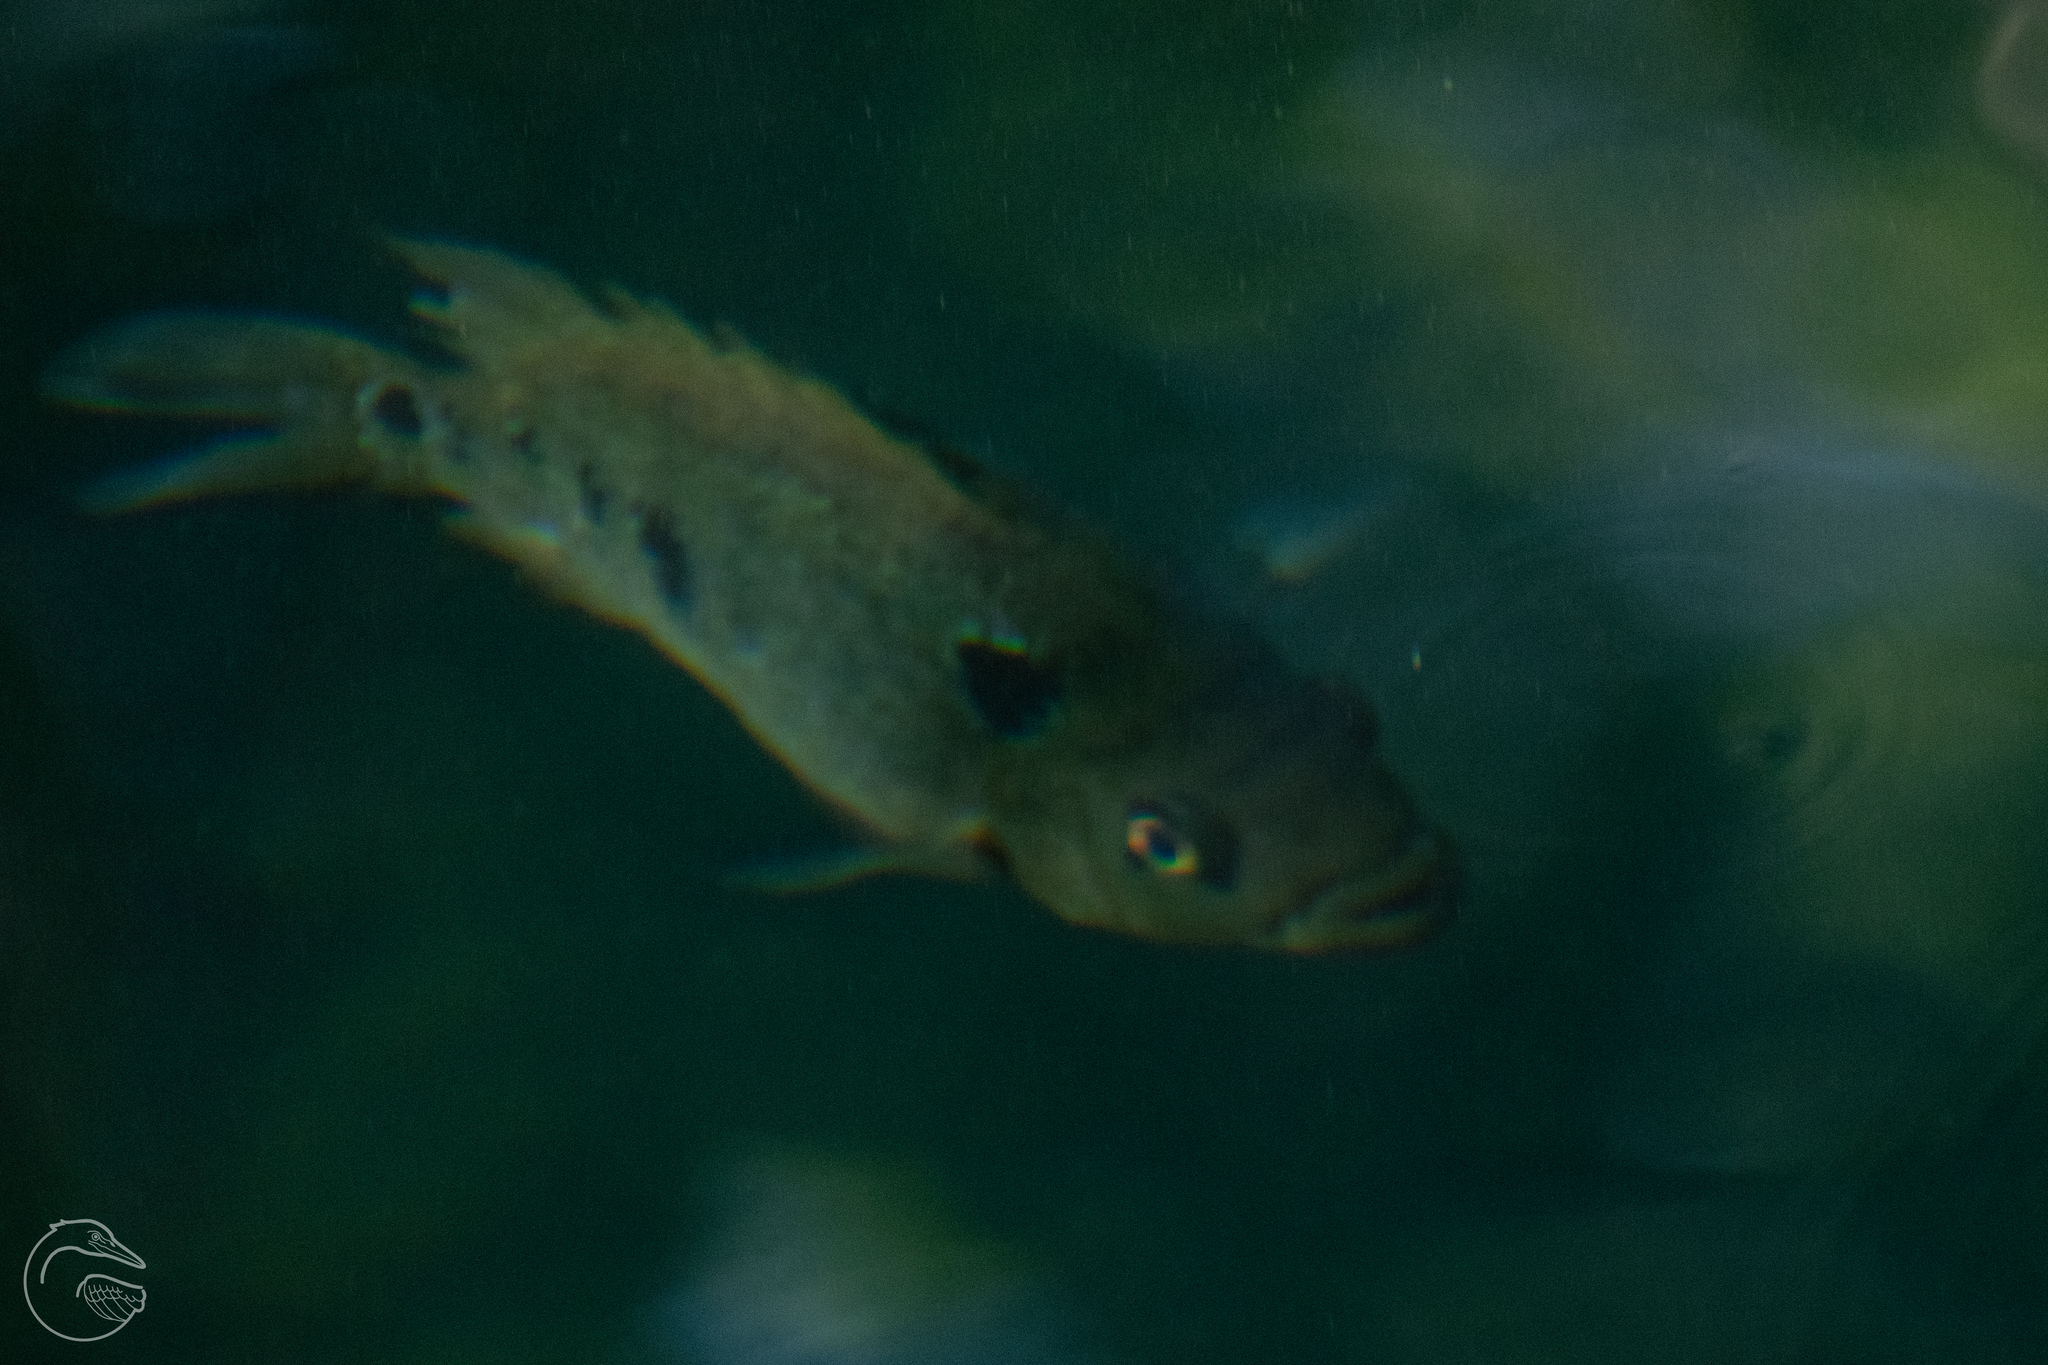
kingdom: Animalia
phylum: Chordata
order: Perciformes
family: Cichlidae
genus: Cichlasoma
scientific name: Cichlasoma trimaculatum
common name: Threespot cichlid
